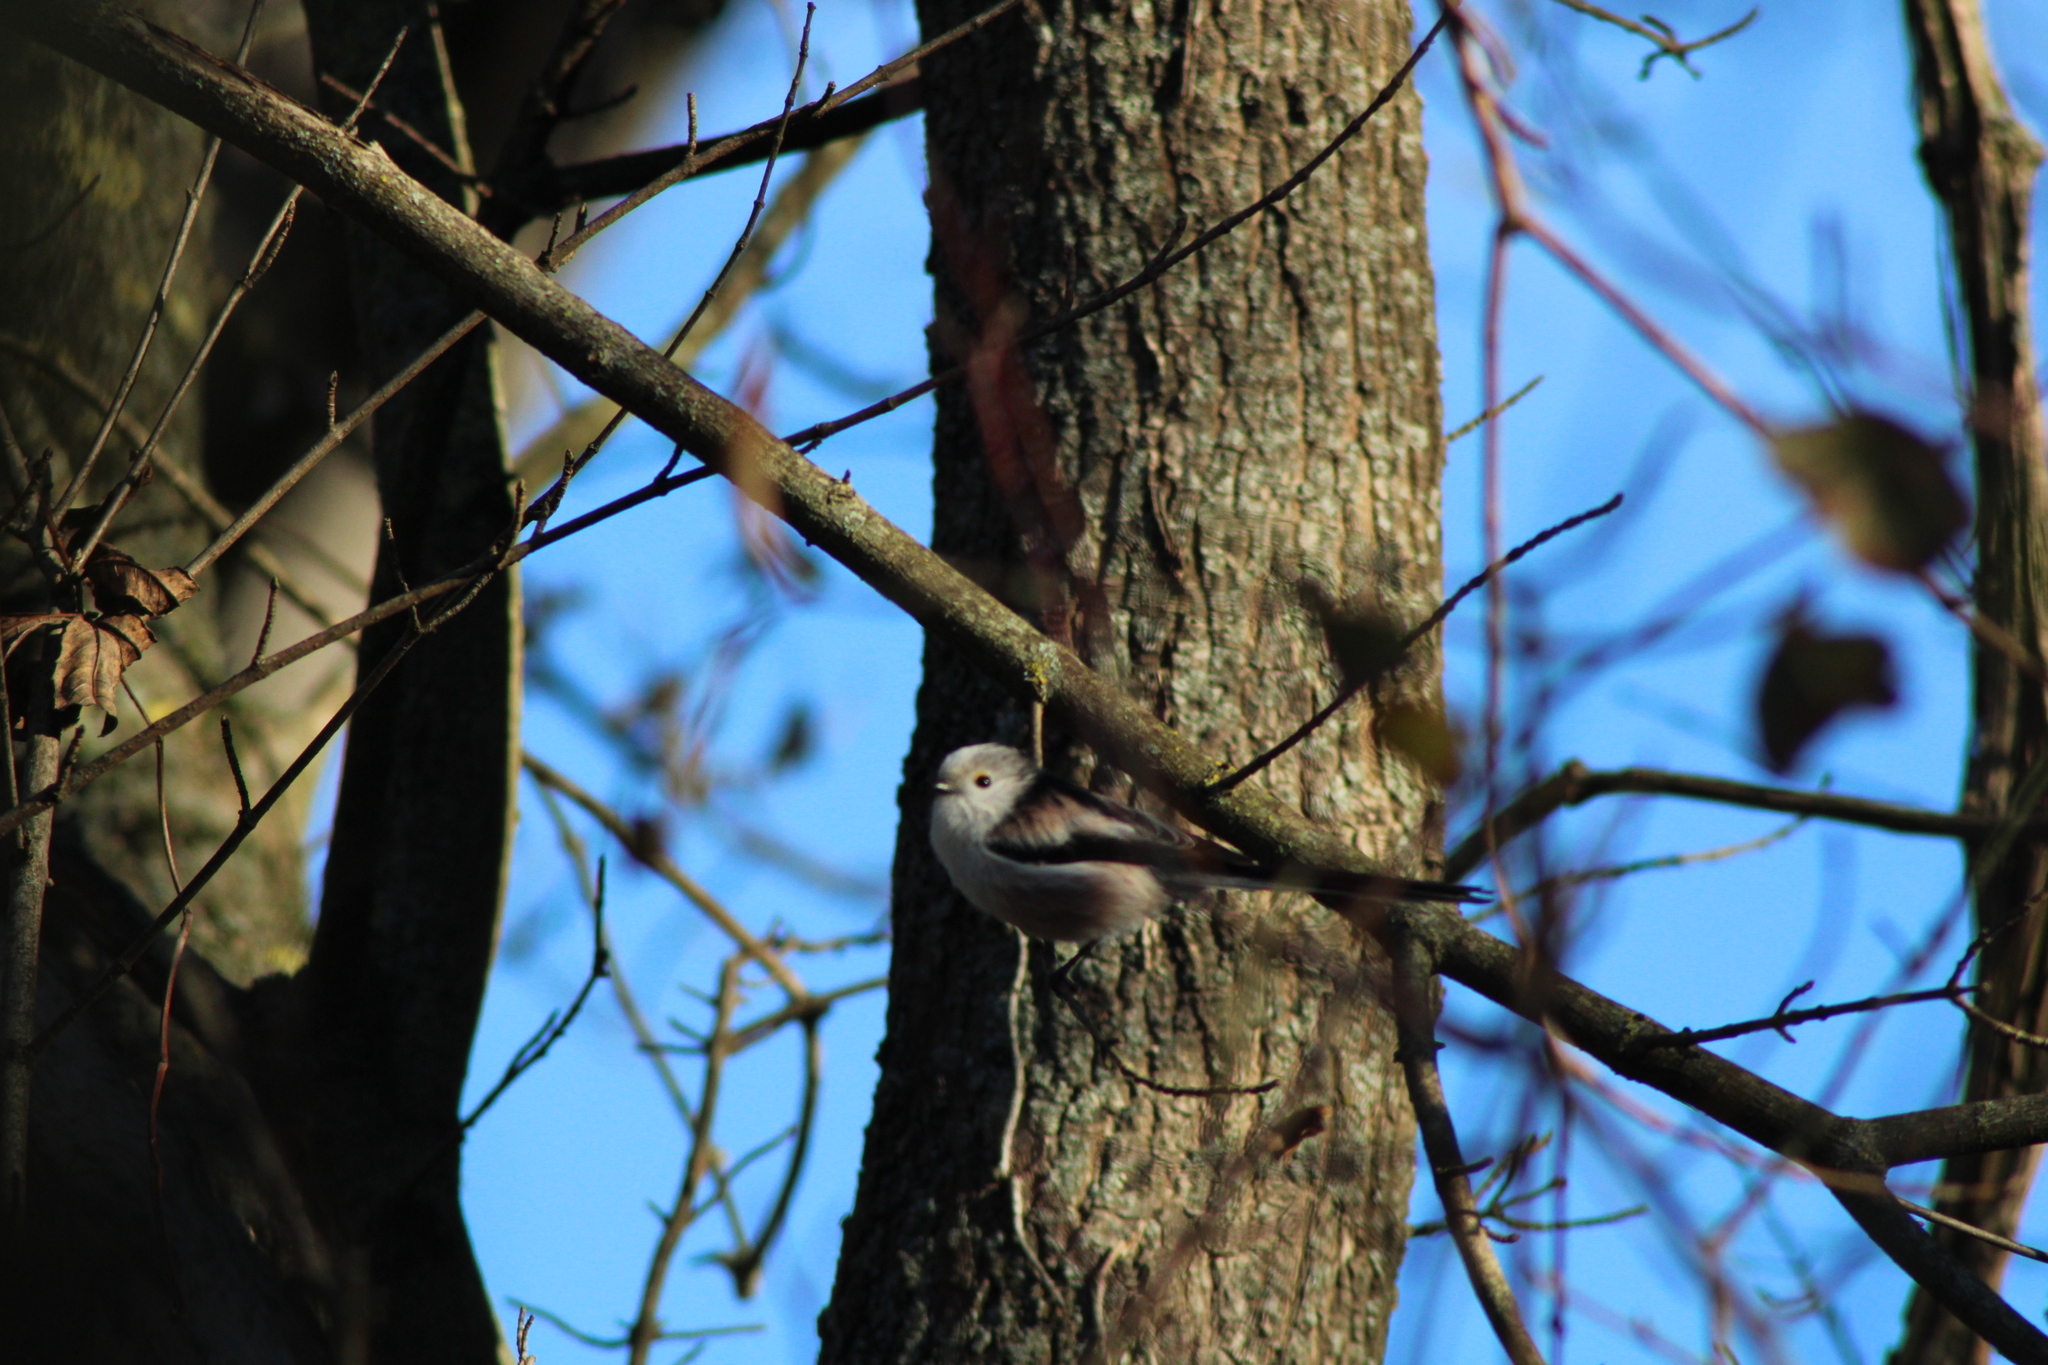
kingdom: Animalia
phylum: Chordata
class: Aves
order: Passeriformes
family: Aegithalidae
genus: Aegithalos
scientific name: Aegithalos caudatus
